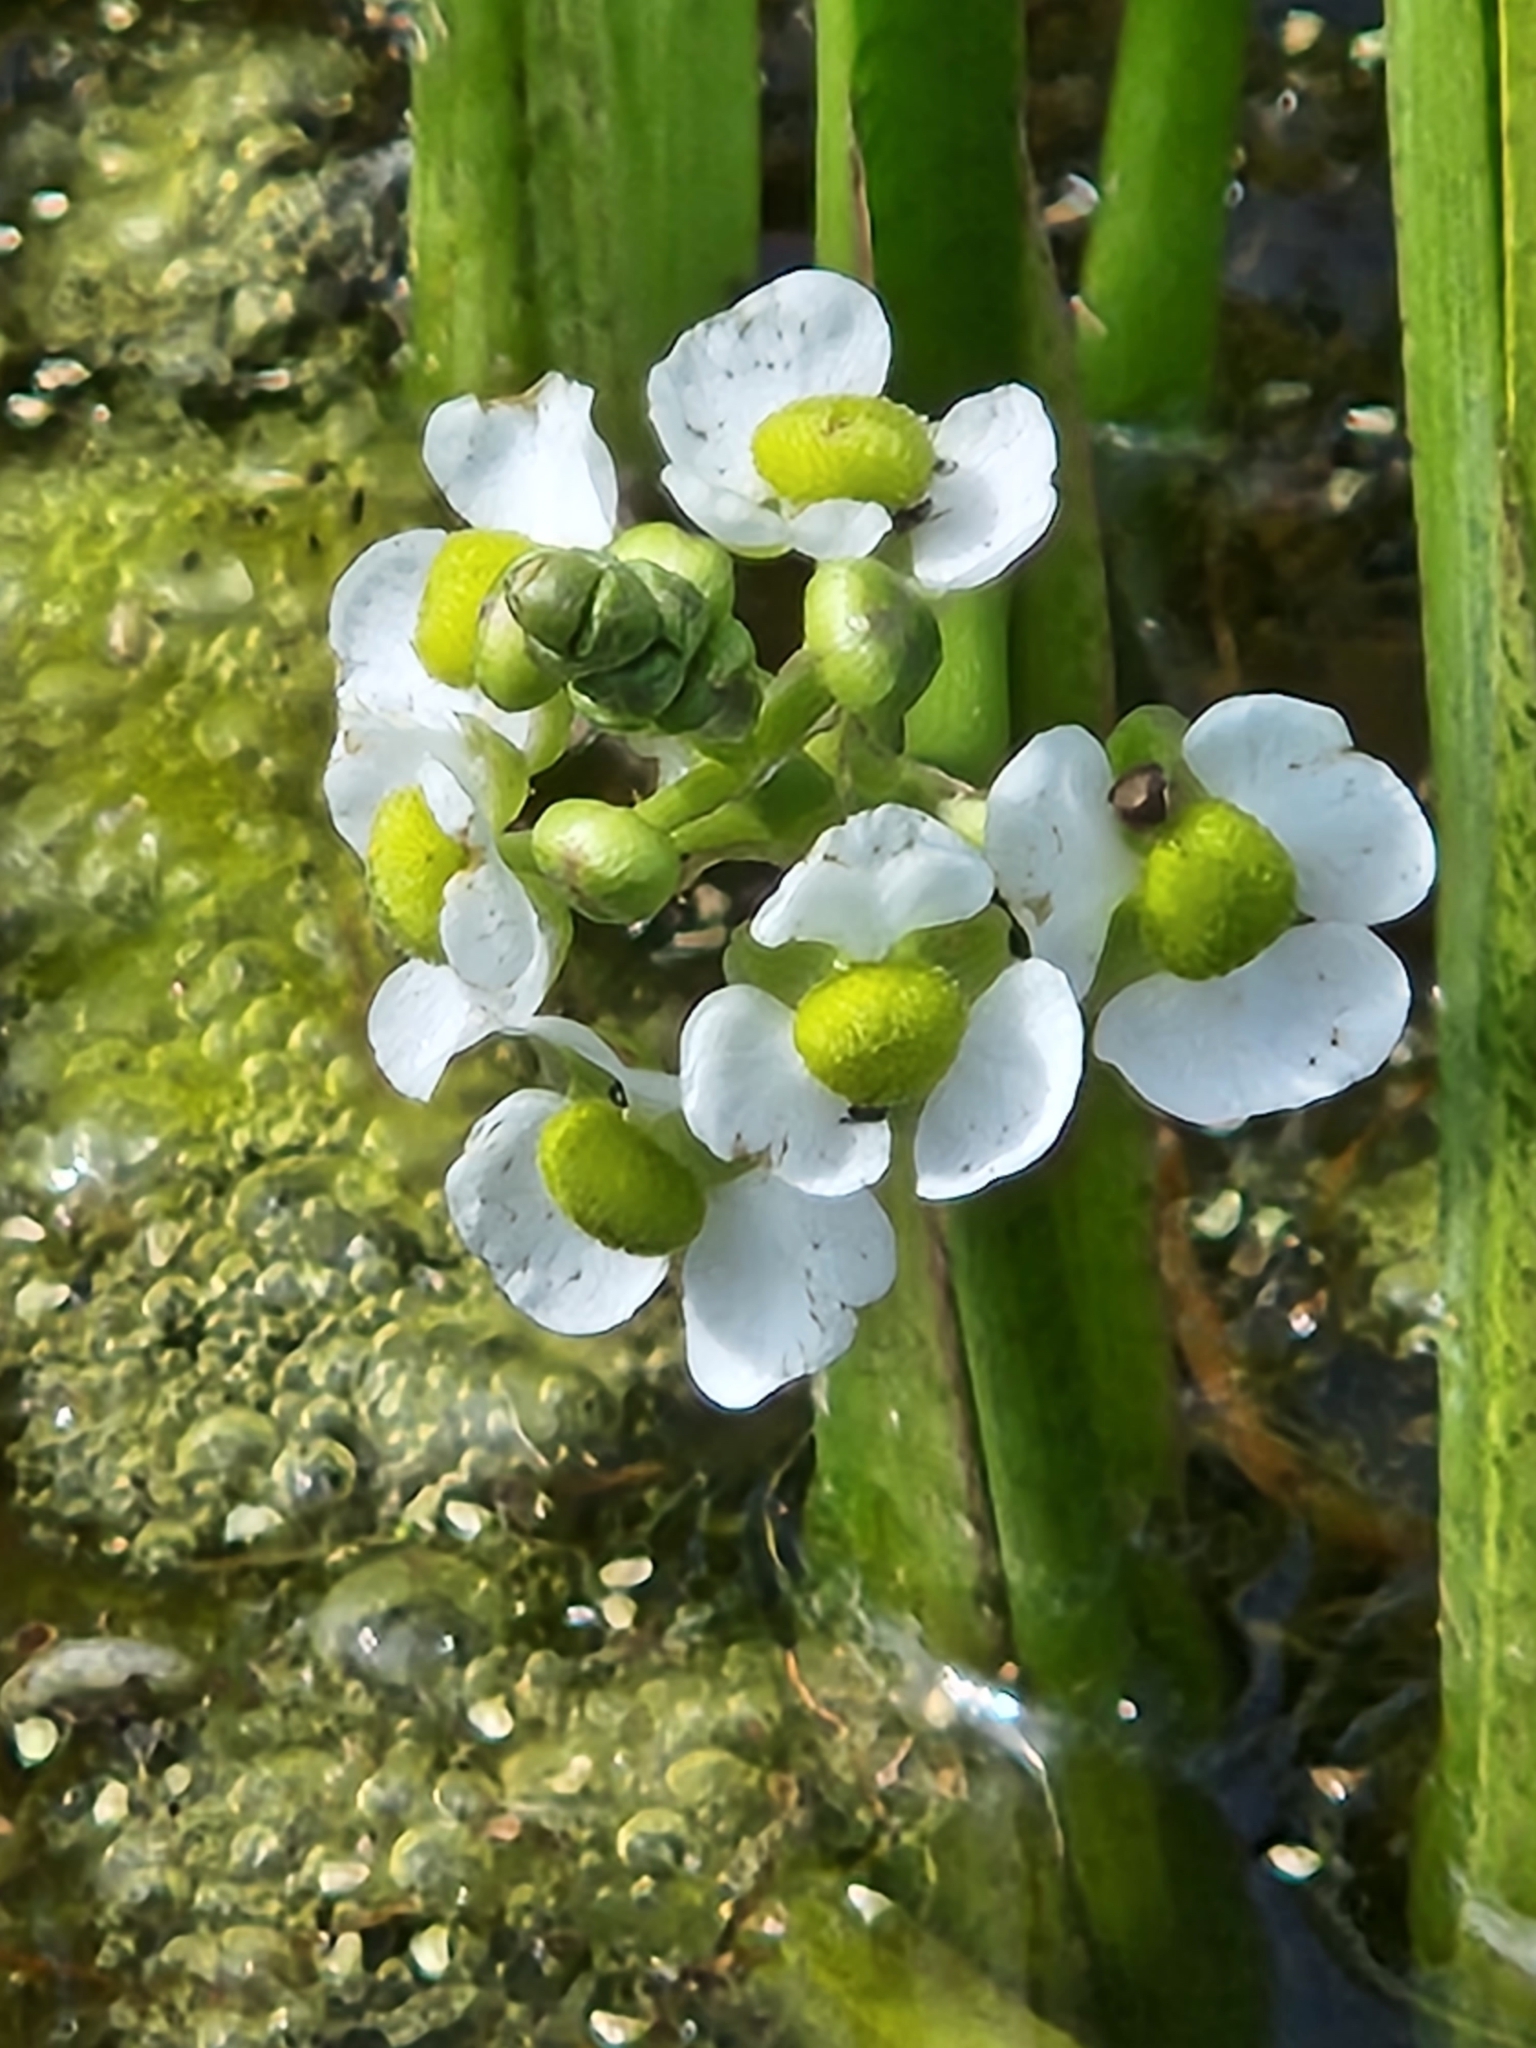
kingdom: Plantae
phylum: Tracheophyta
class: Liliopsida
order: Alismatales
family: Alismataceae
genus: Sagittaria
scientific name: Sagittaria platyphylla
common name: Broad-leaf arrowhead
